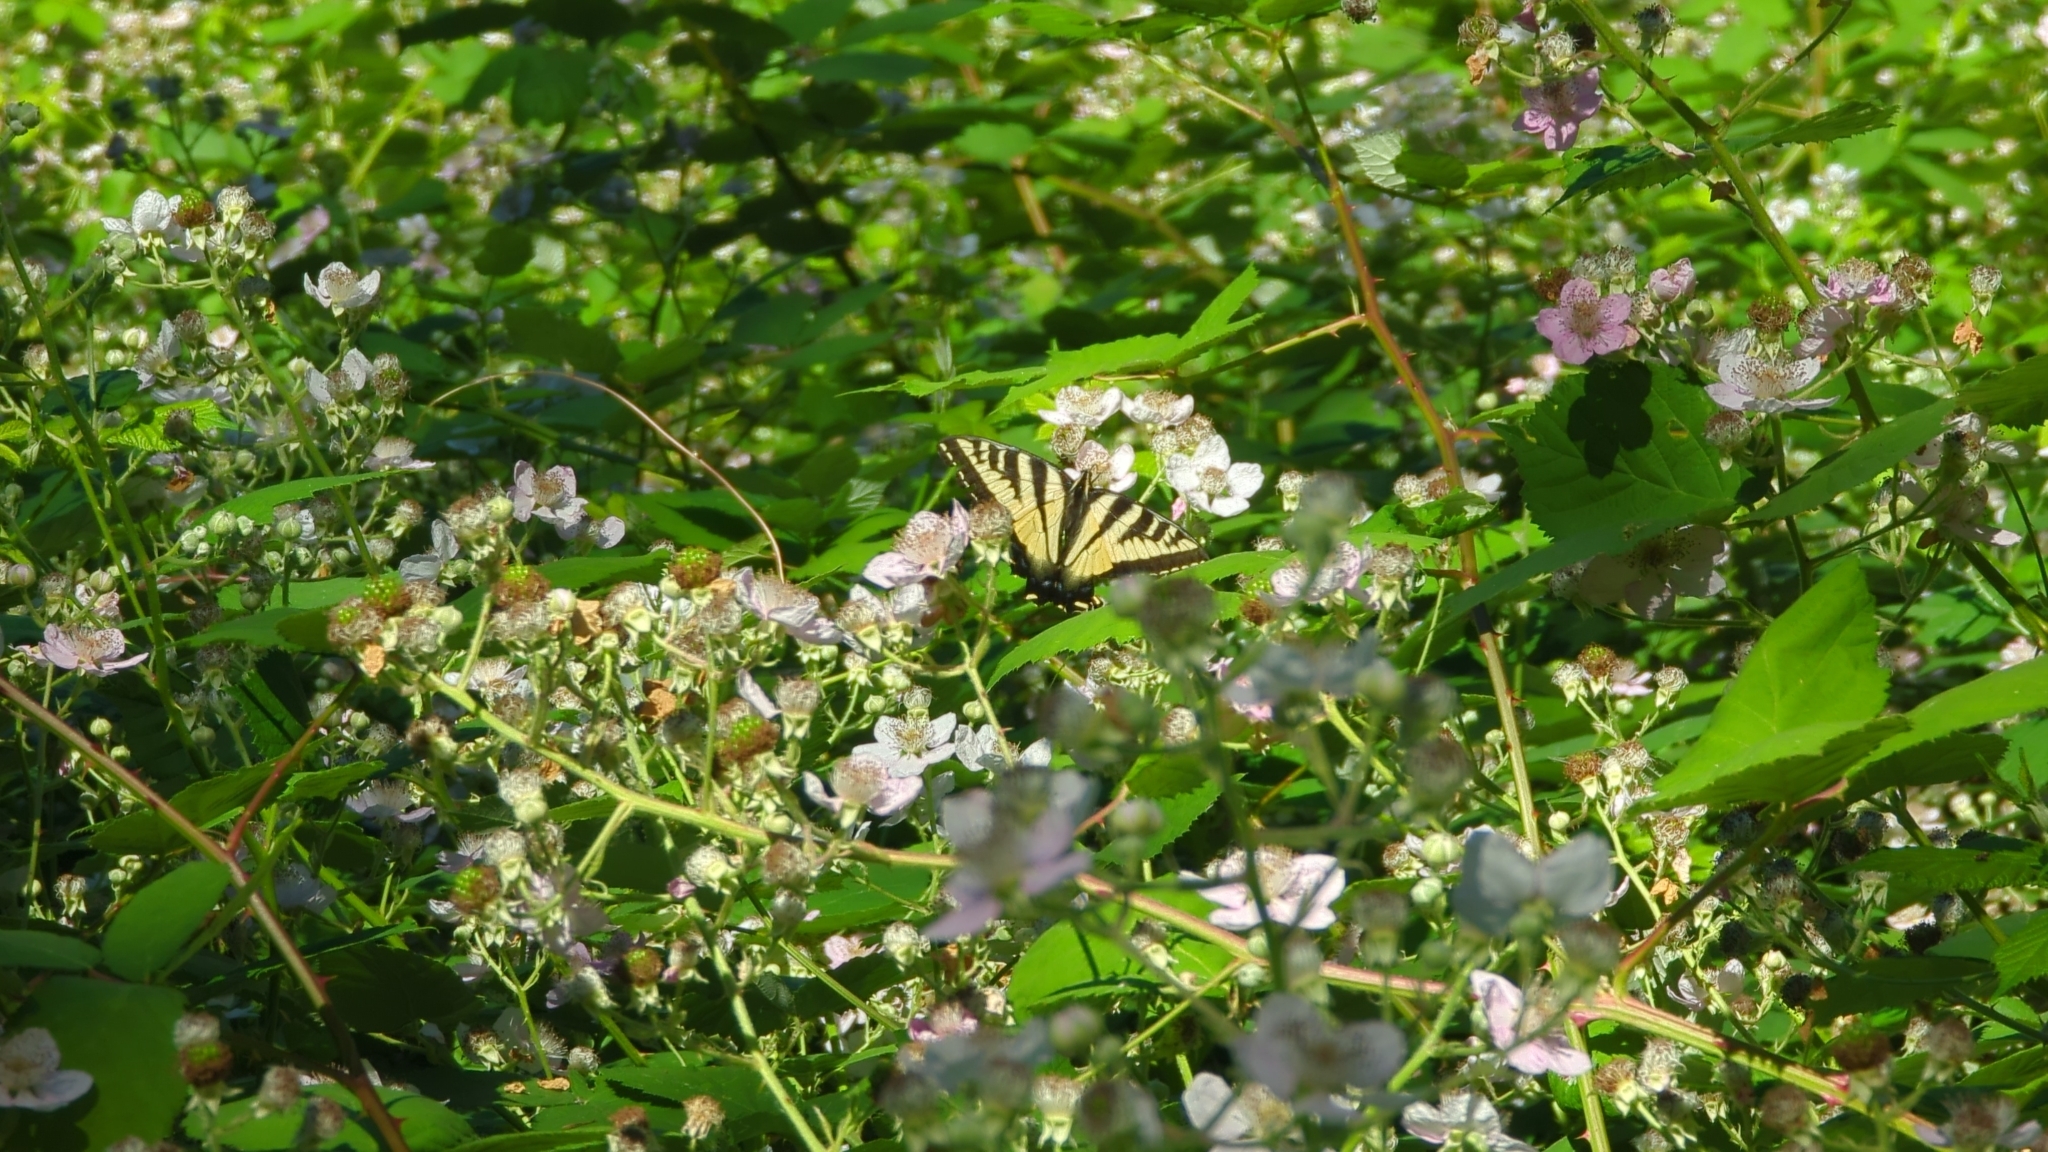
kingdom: Animalia
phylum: Arthropoda
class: Insecta
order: Lepidoptera
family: Papilionidae
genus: Papilio
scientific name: Papilio rutulus
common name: Western tiger swallowtail
